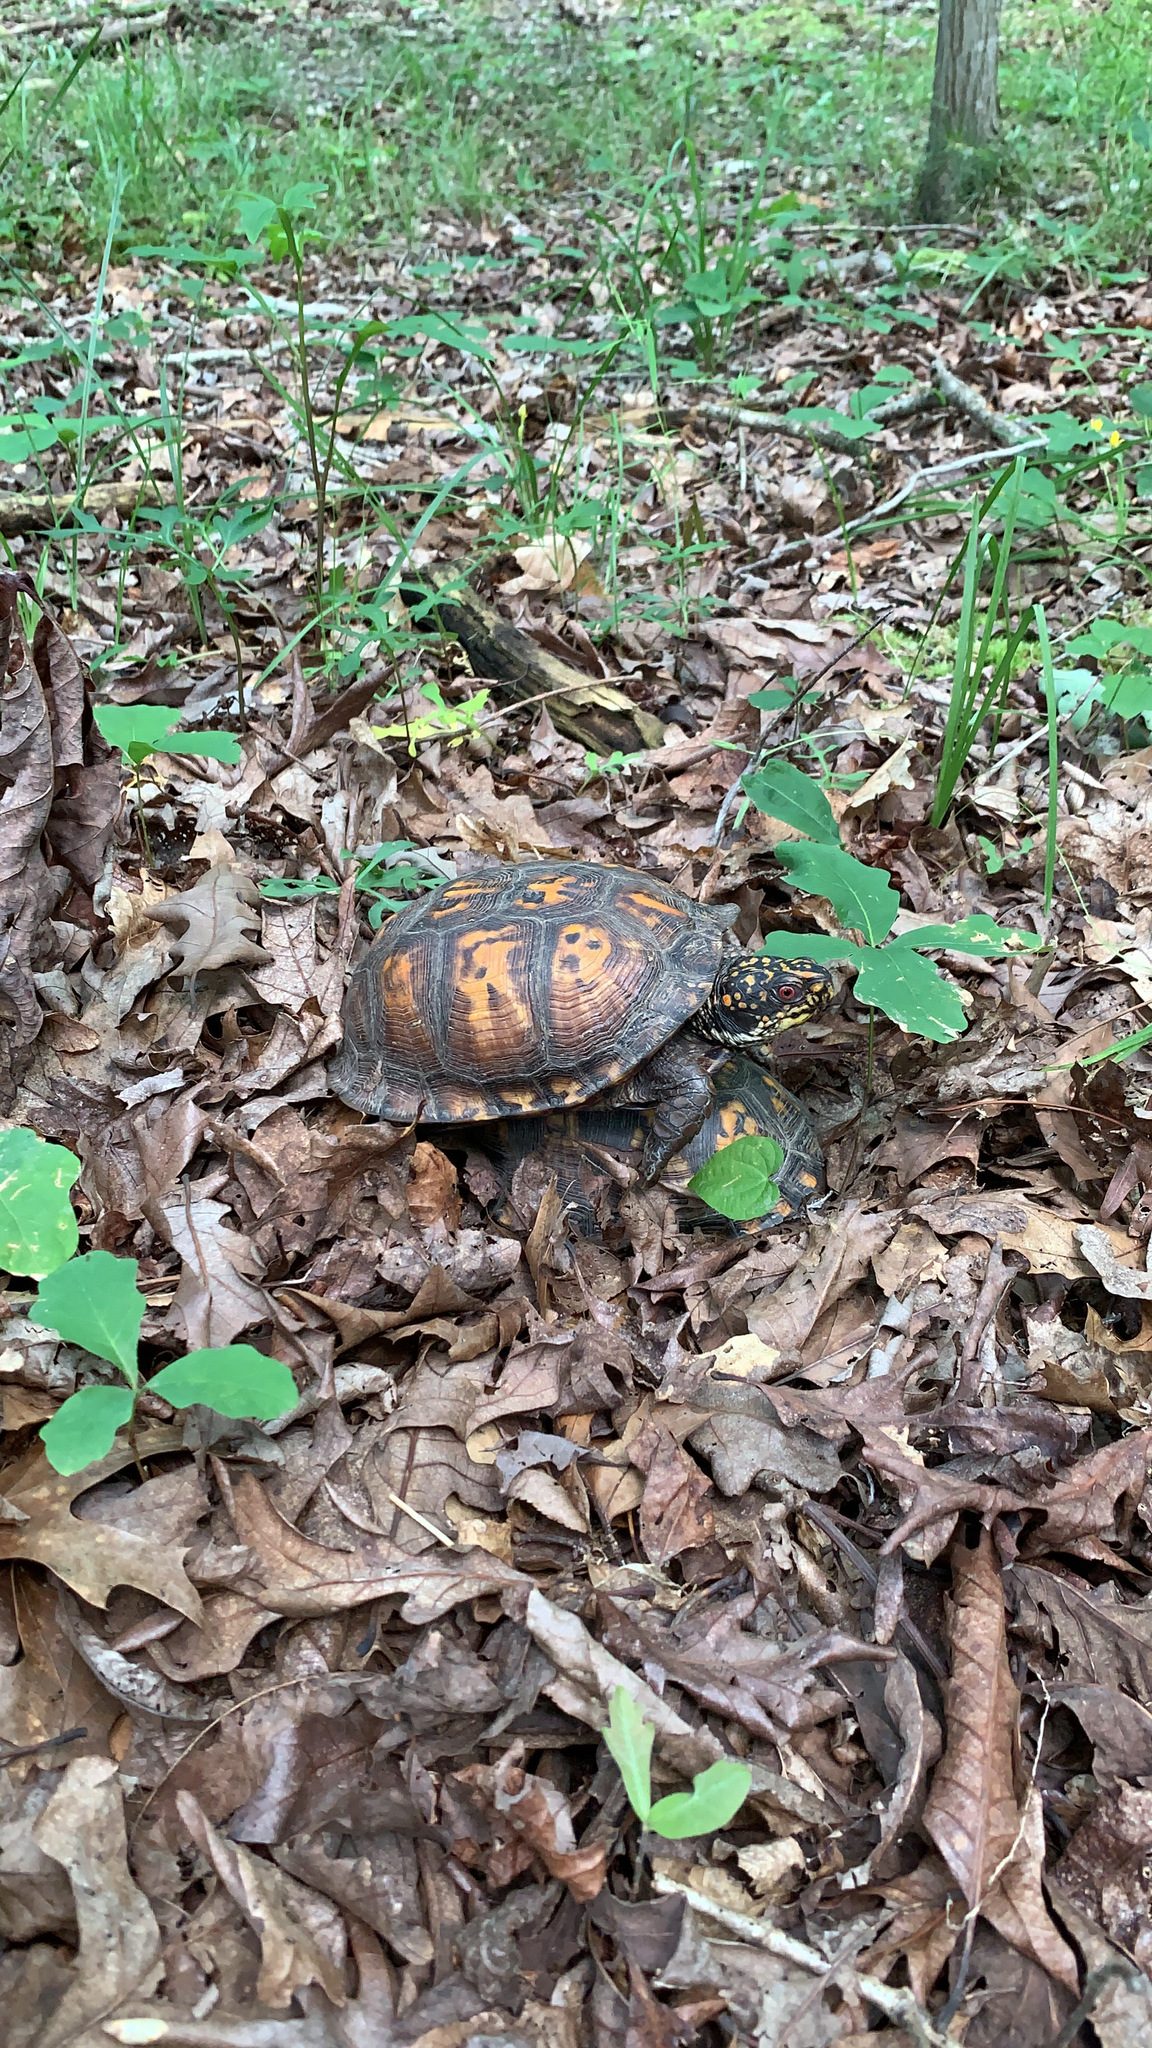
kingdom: Animalia
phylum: Chordata
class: Testudines
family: Emydidae
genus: Terrapene
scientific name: Terrapene carolina
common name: Common box turtle
